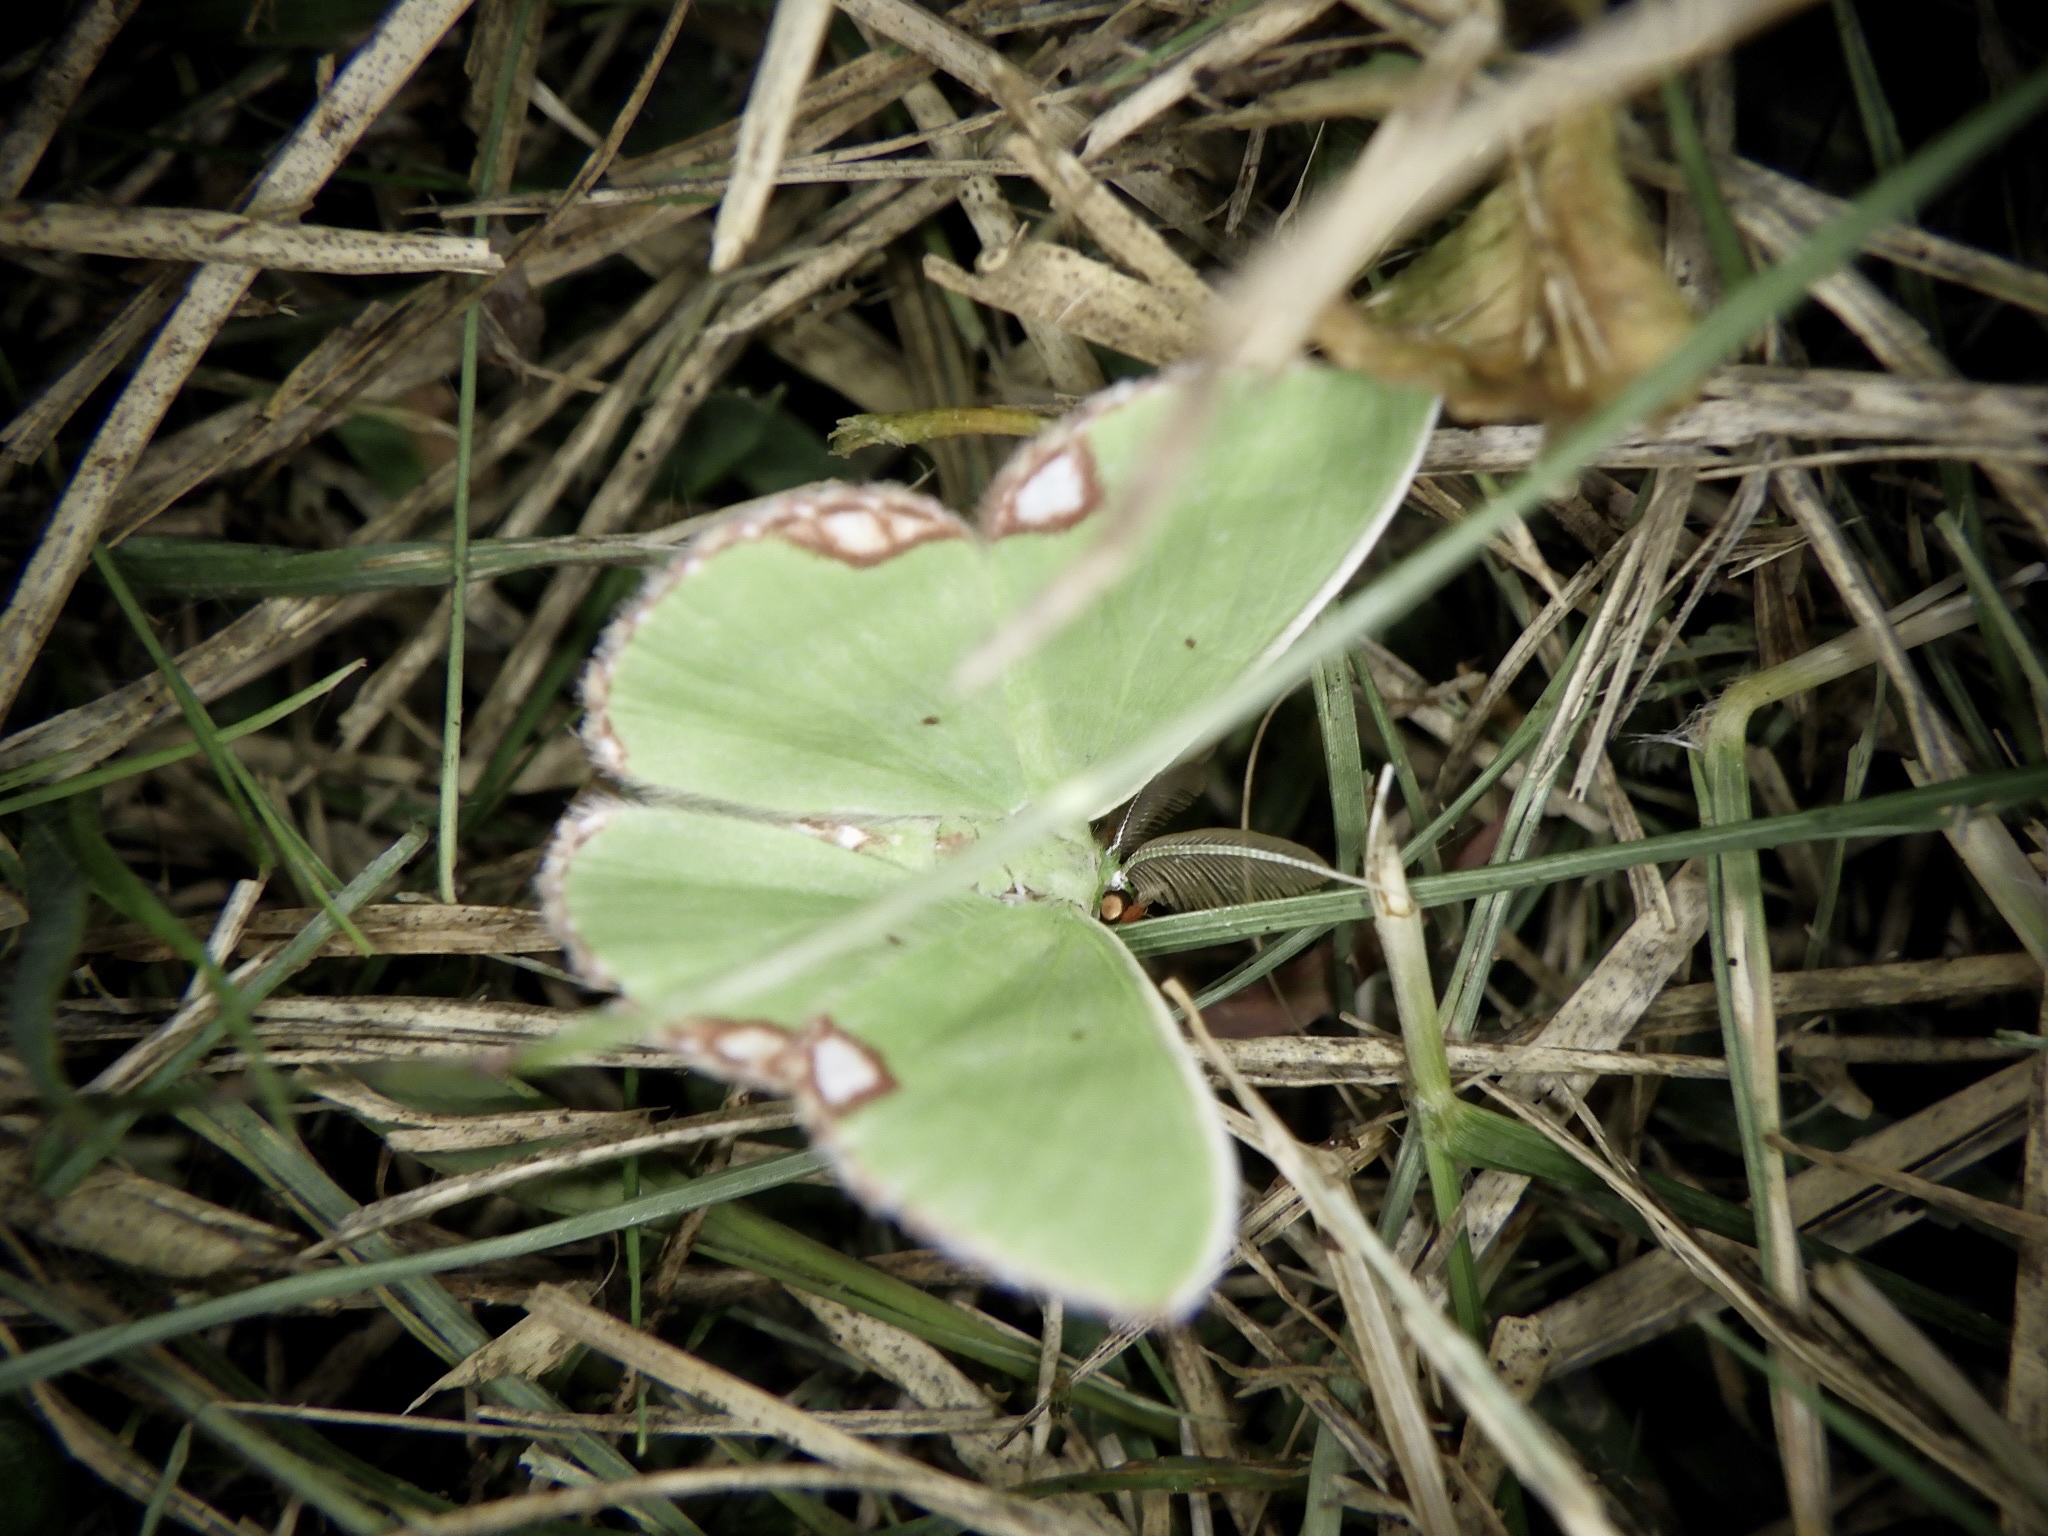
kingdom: Animalia
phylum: Arthropoda
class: Insecta
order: Lepidoptera
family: Geometridae
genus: Comibaena
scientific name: Comibaena procumbaria
